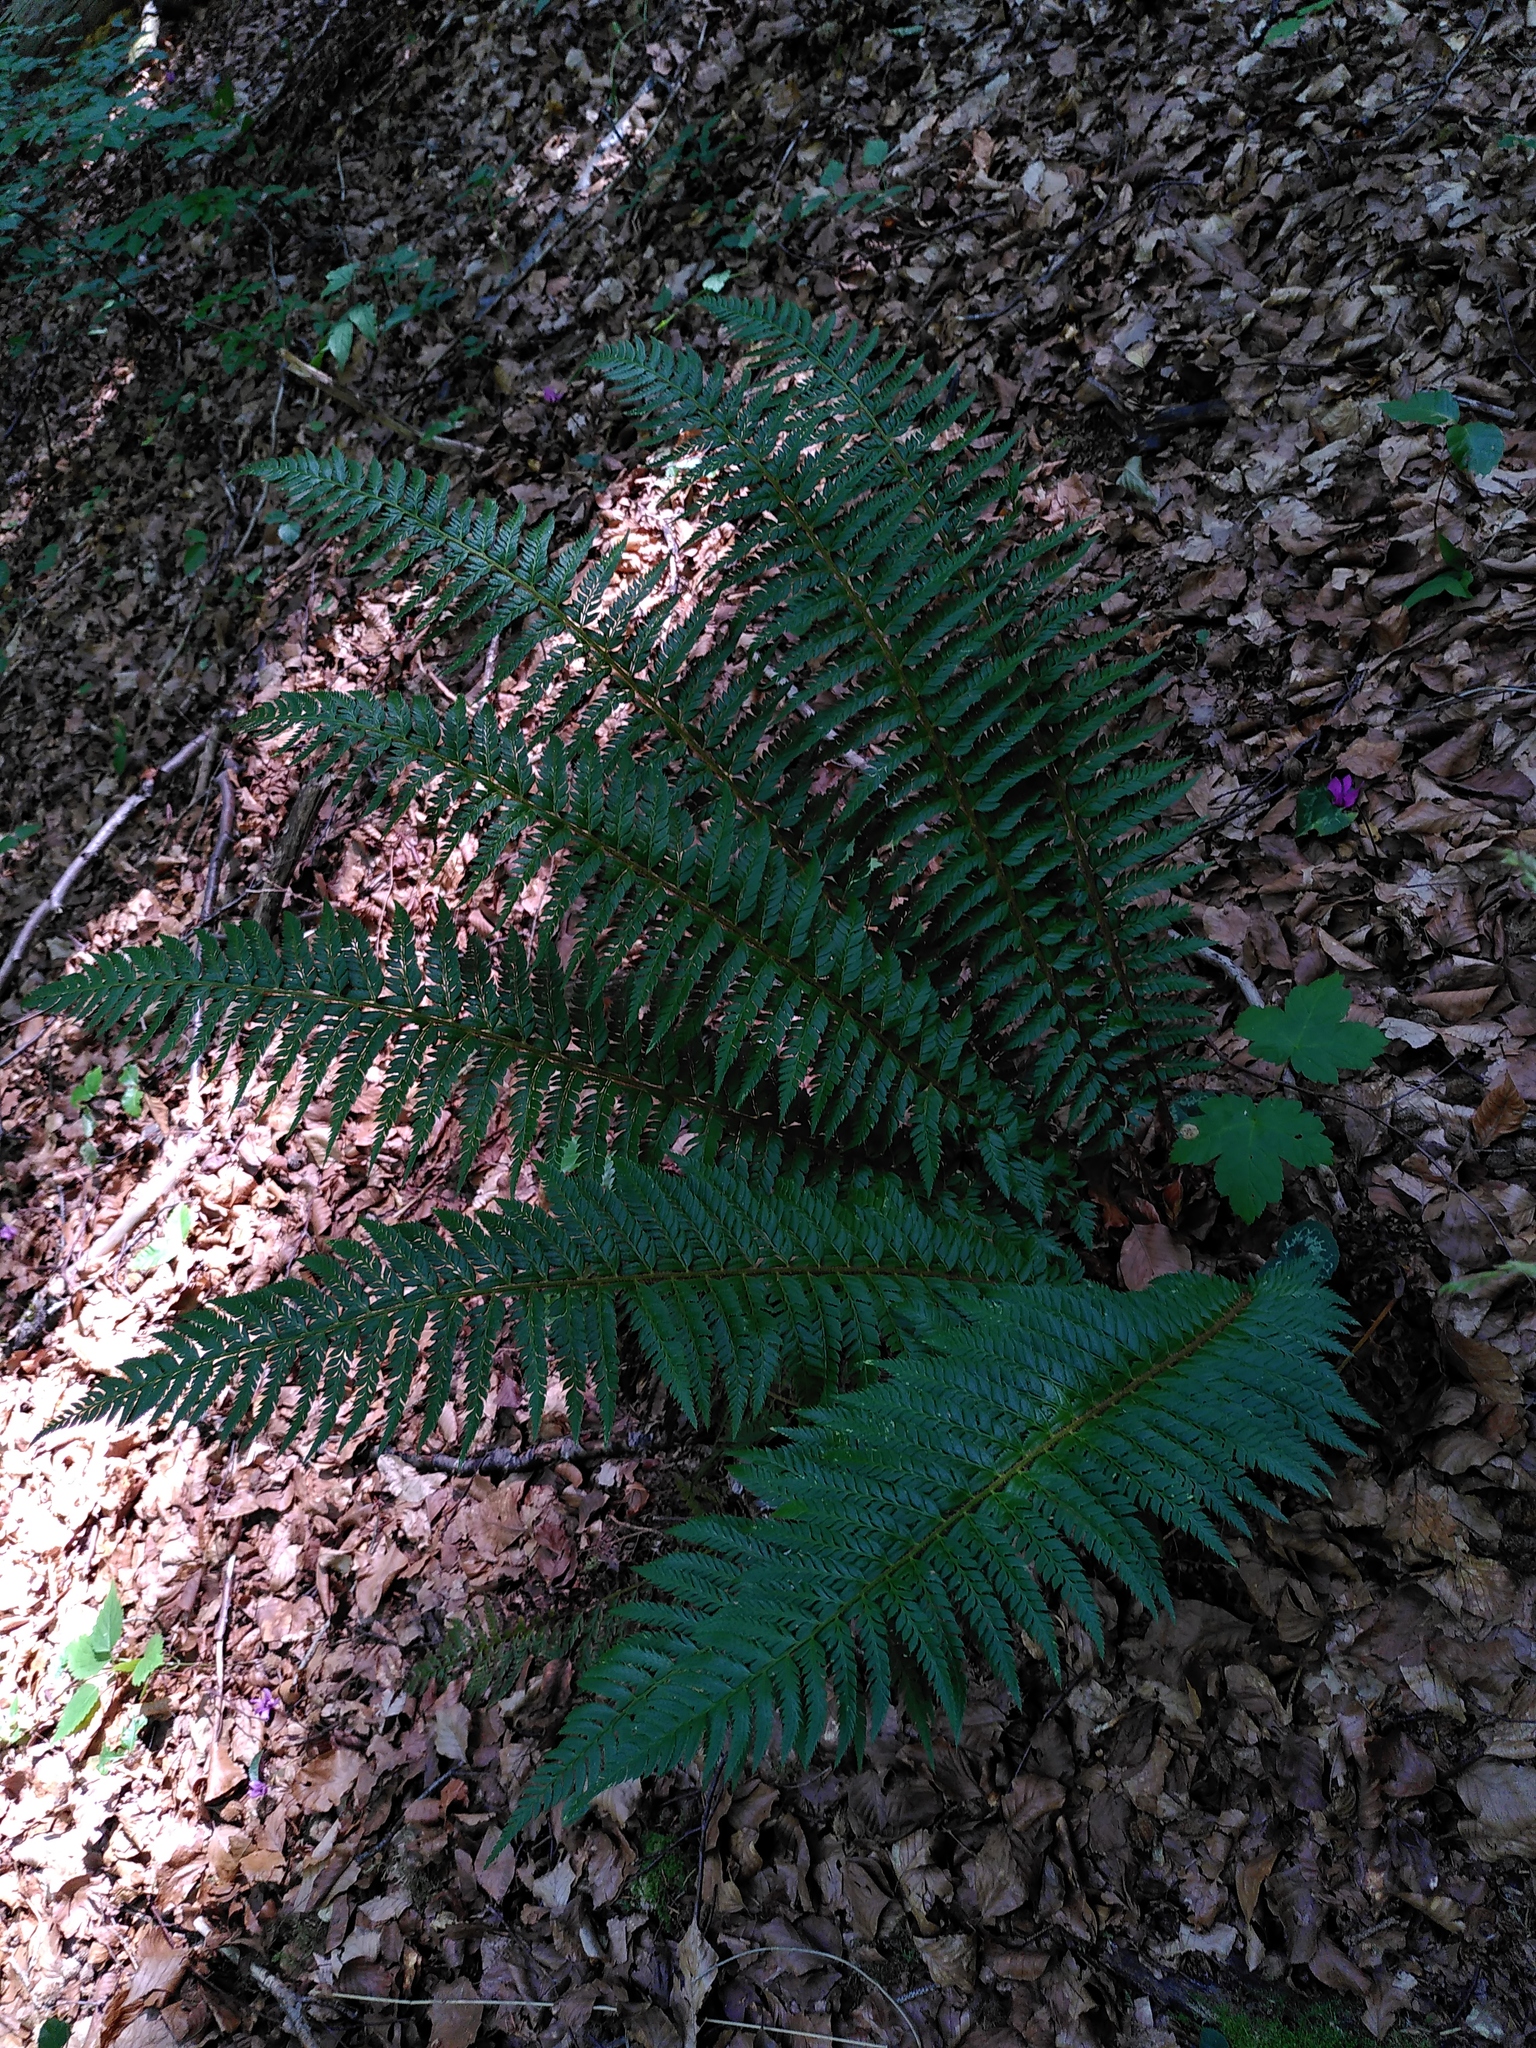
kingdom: Plantae
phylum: Tracheophyta
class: Polypodiopsida
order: Polypodiales
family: Dryopteridaceae
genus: Polystichum
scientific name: Polystichum aculeatum
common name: Hard shield-fern
